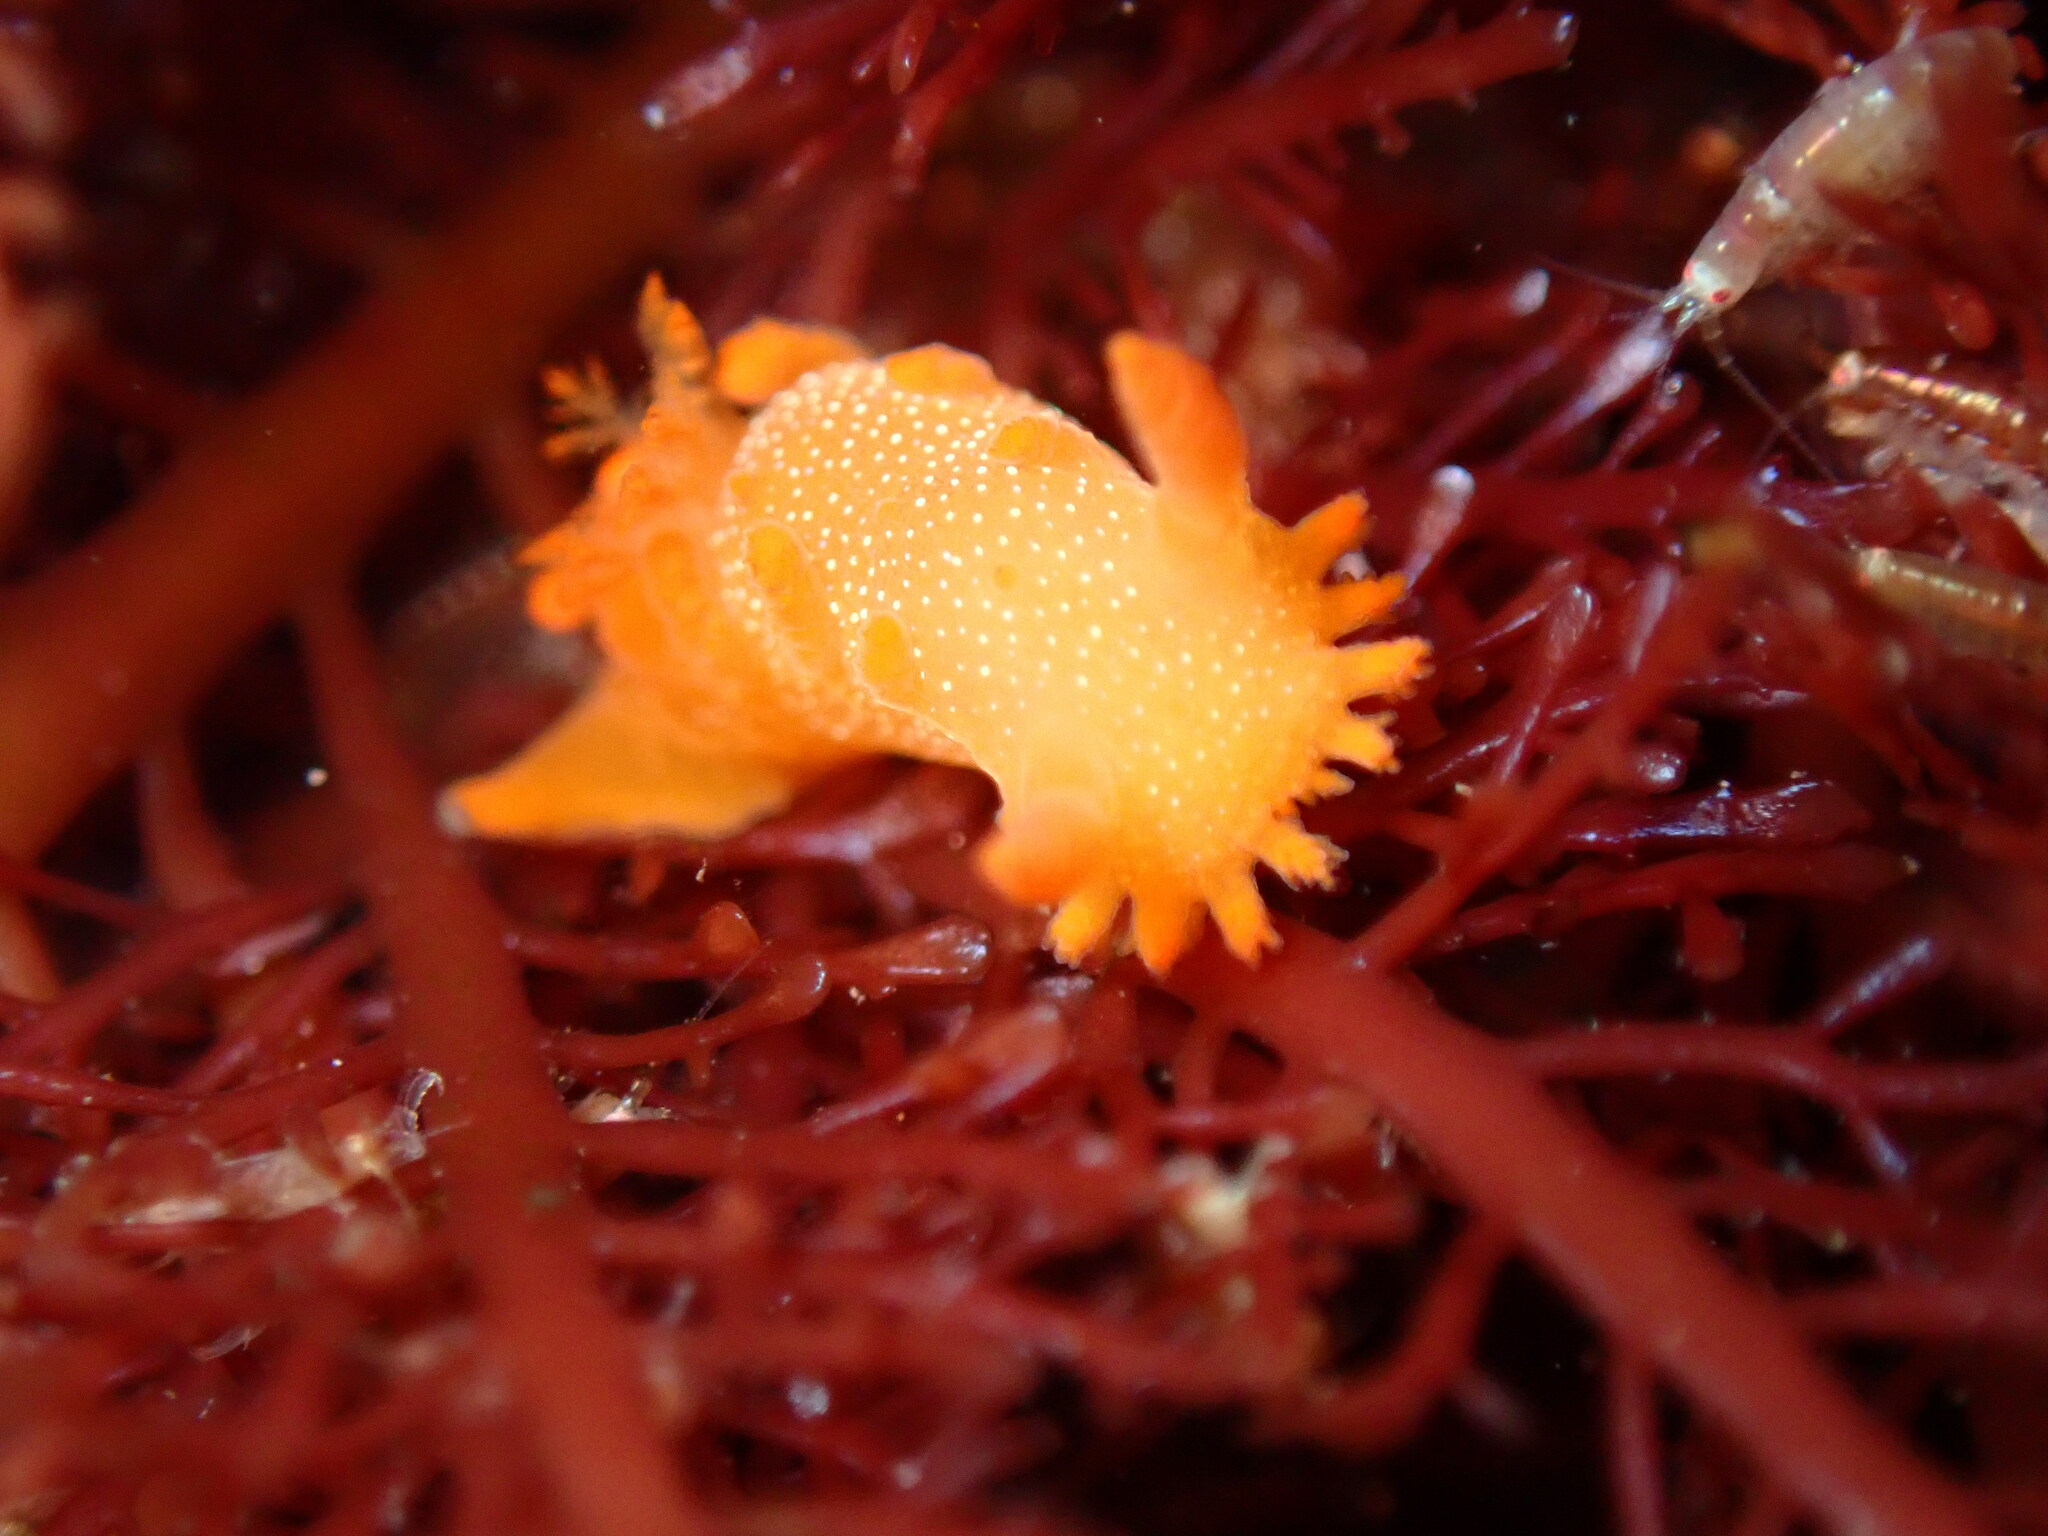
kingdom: Animalia
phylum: Mollusca
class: Gastropoda
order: Nudibranchia
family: Polyceridae
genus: Triopha
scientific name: Triopha maculata
